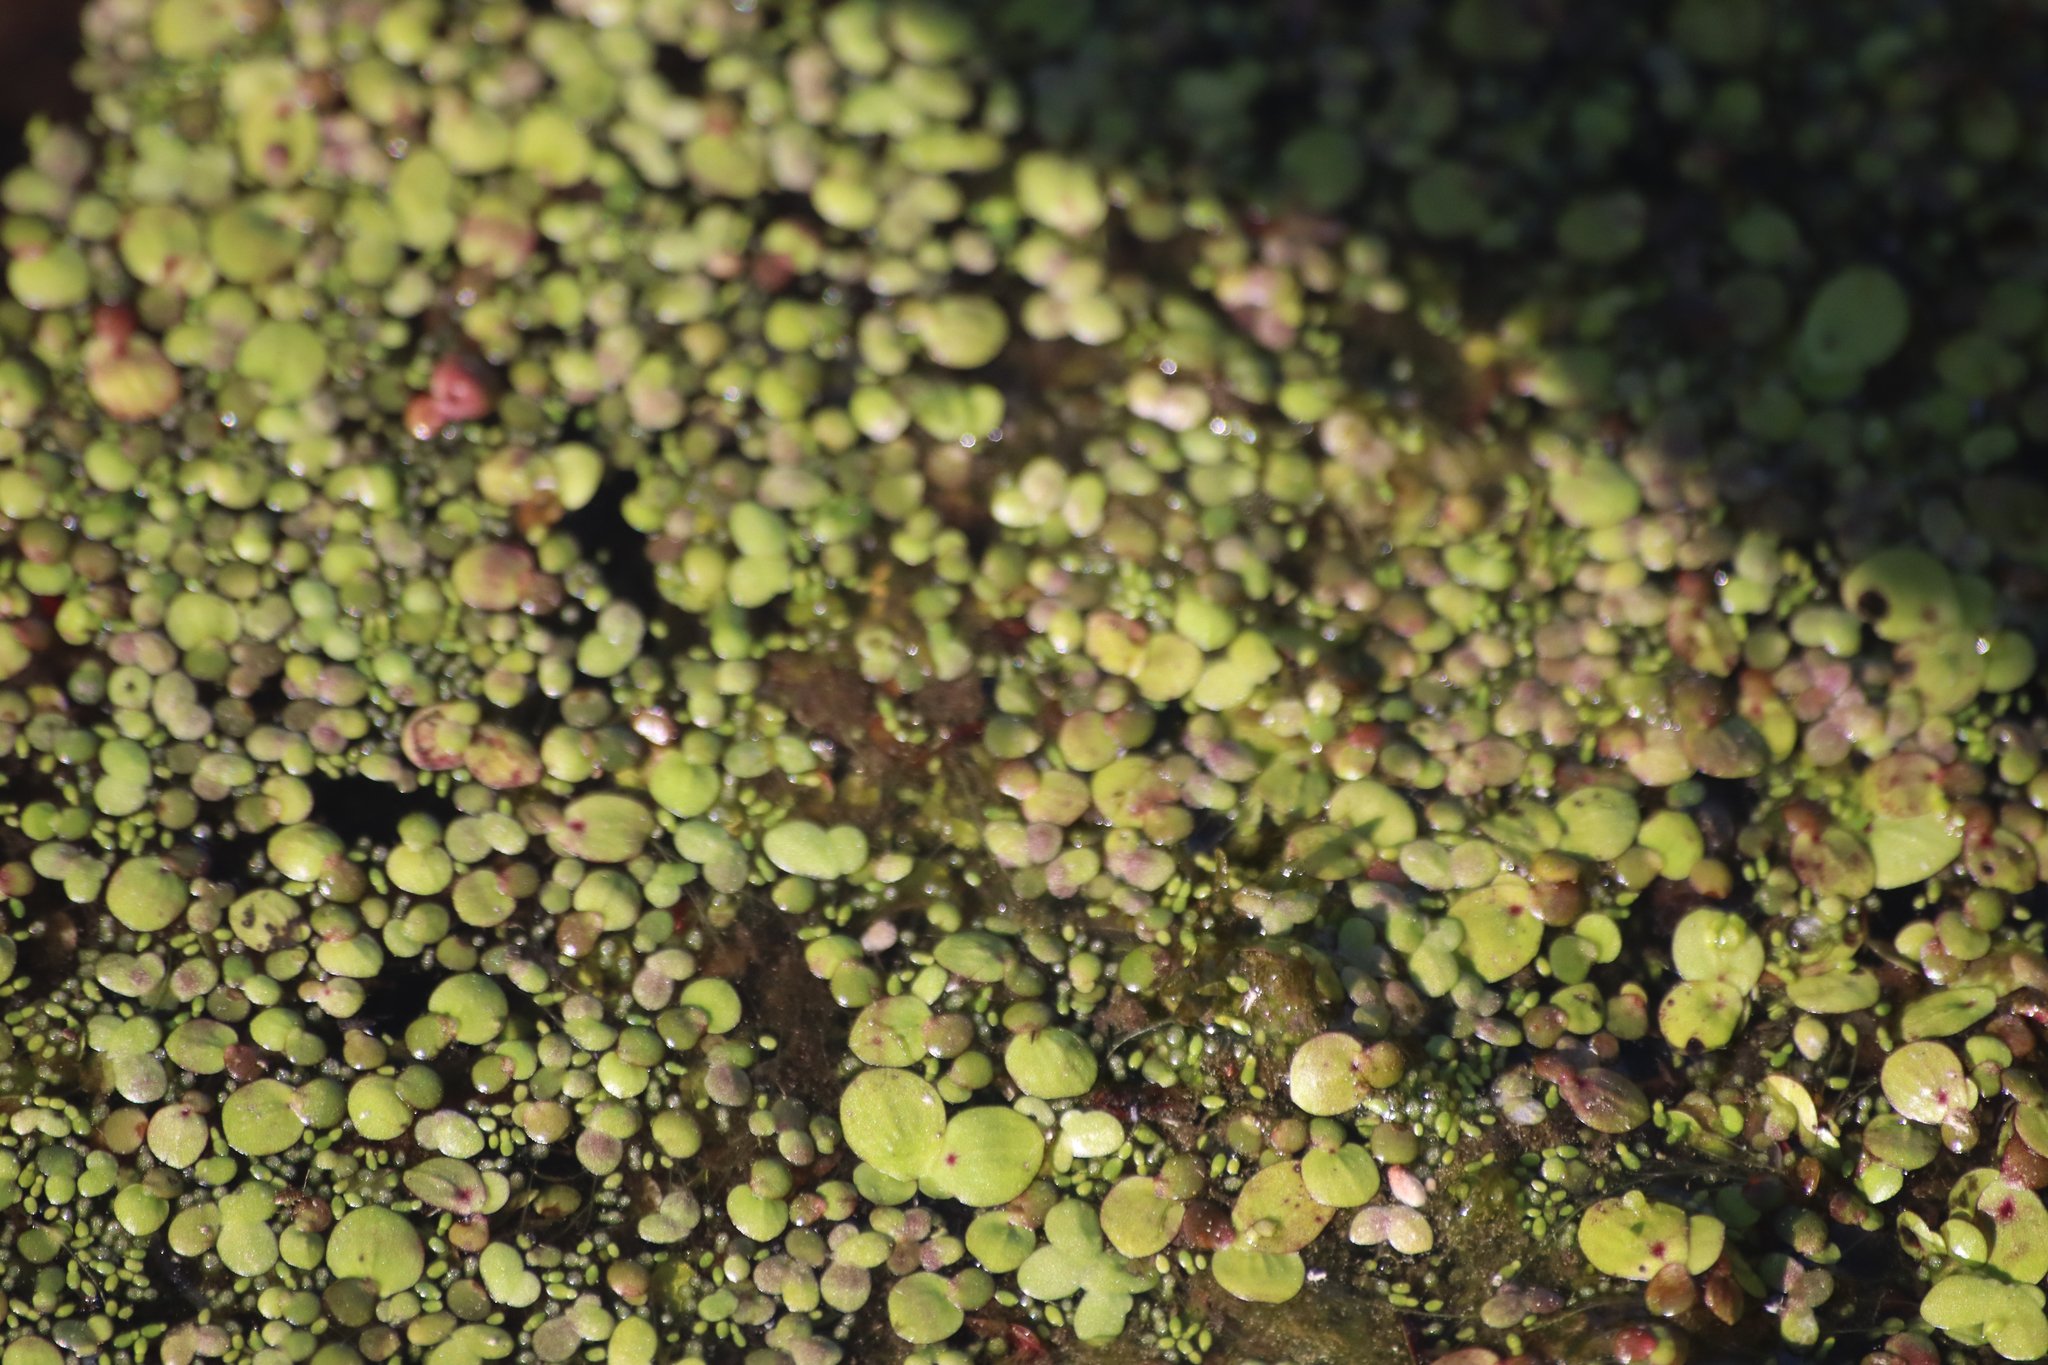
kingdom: Plantae
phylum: Tracheophyta
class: Liliopsida
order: Alismatales
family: Araceae
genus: Spirodela
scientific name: Spirodela polyrhiza
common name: Great duckweed
